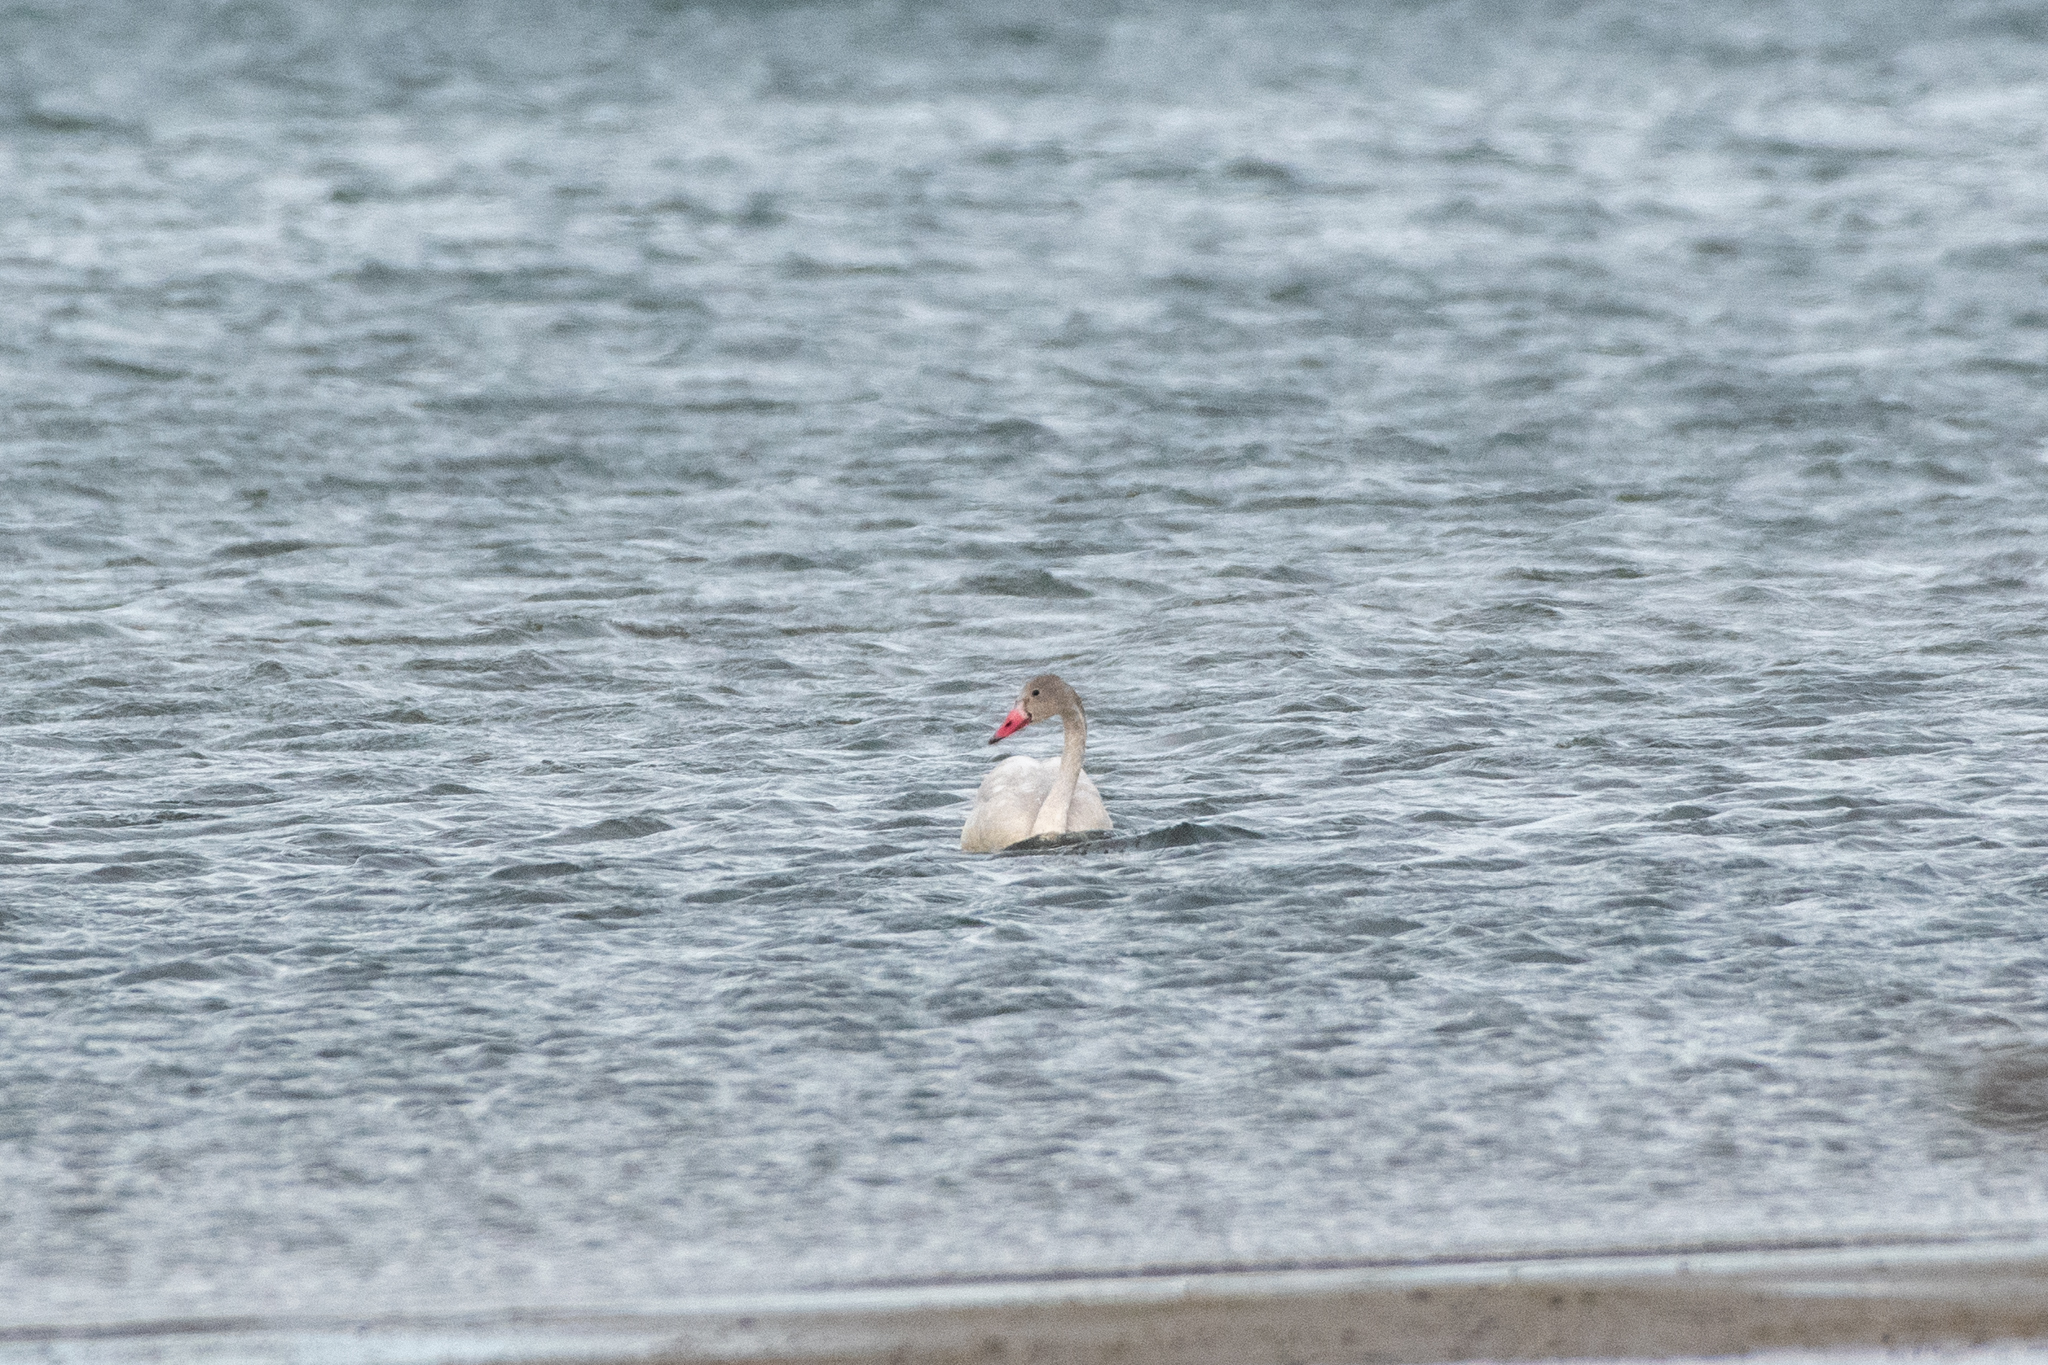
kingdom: Animalia
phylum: Chordata
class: Aves
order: Anseriformes
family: Anatidae
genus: Cygnus
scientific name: Cygnus columbianus
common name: Tundra swan
